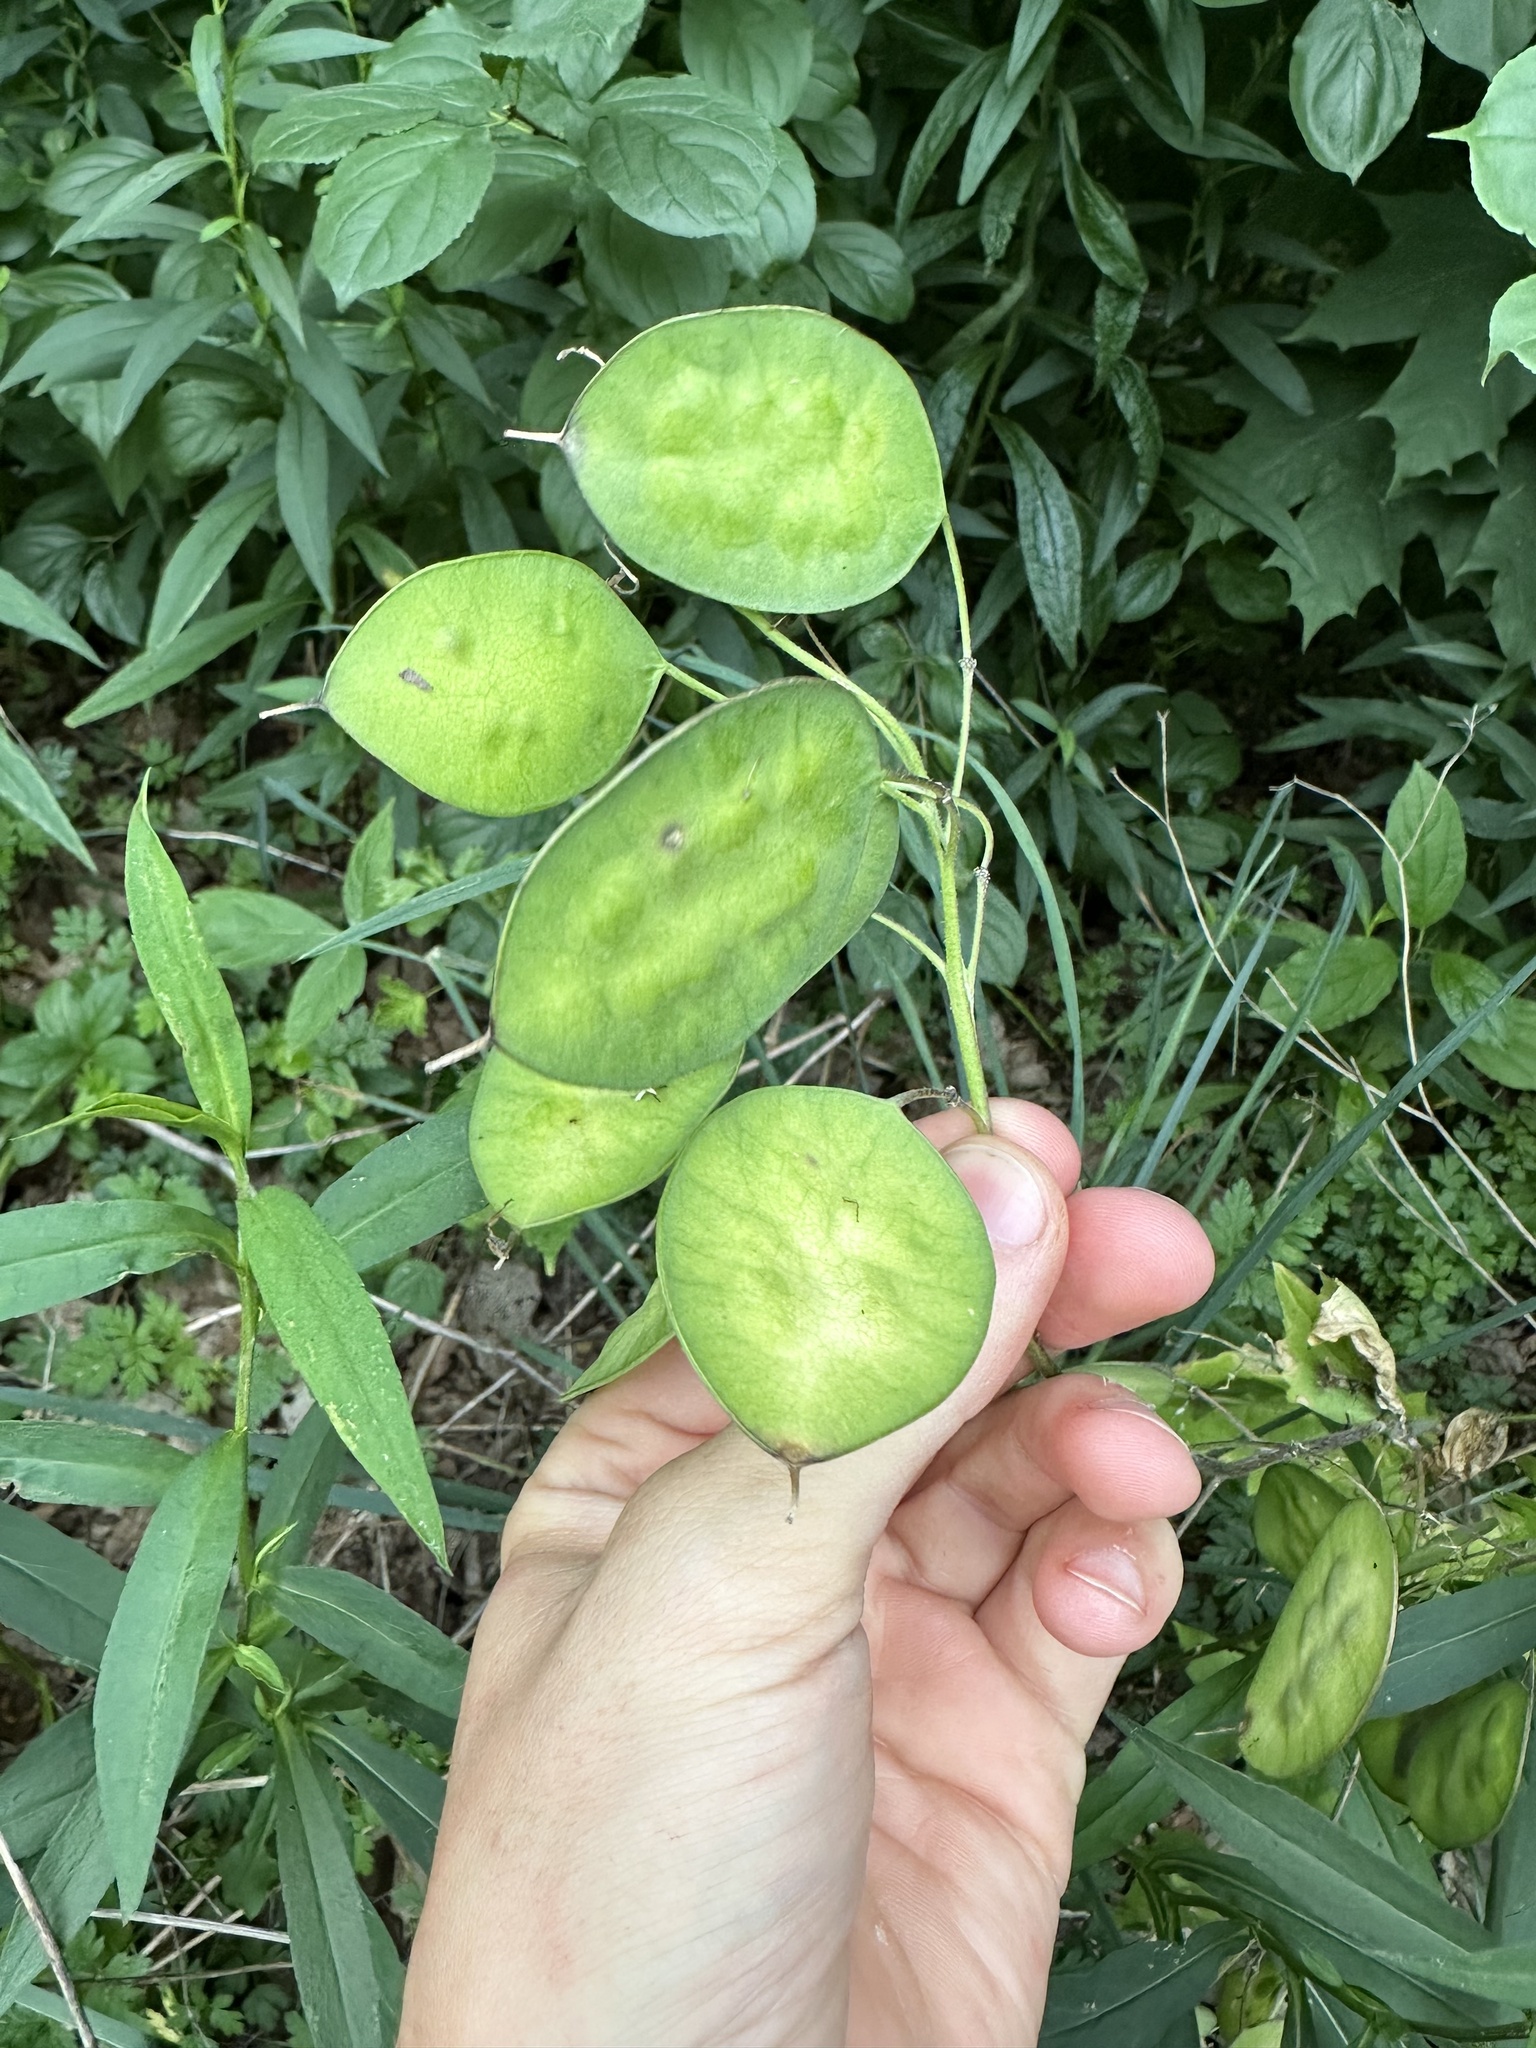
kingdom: Plantae
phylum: Tracheophyta
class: Magnoliopsida
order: Brassicales
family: Brassicaceae
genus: Lunaria
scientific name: Lunaria annua
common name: Honesty
